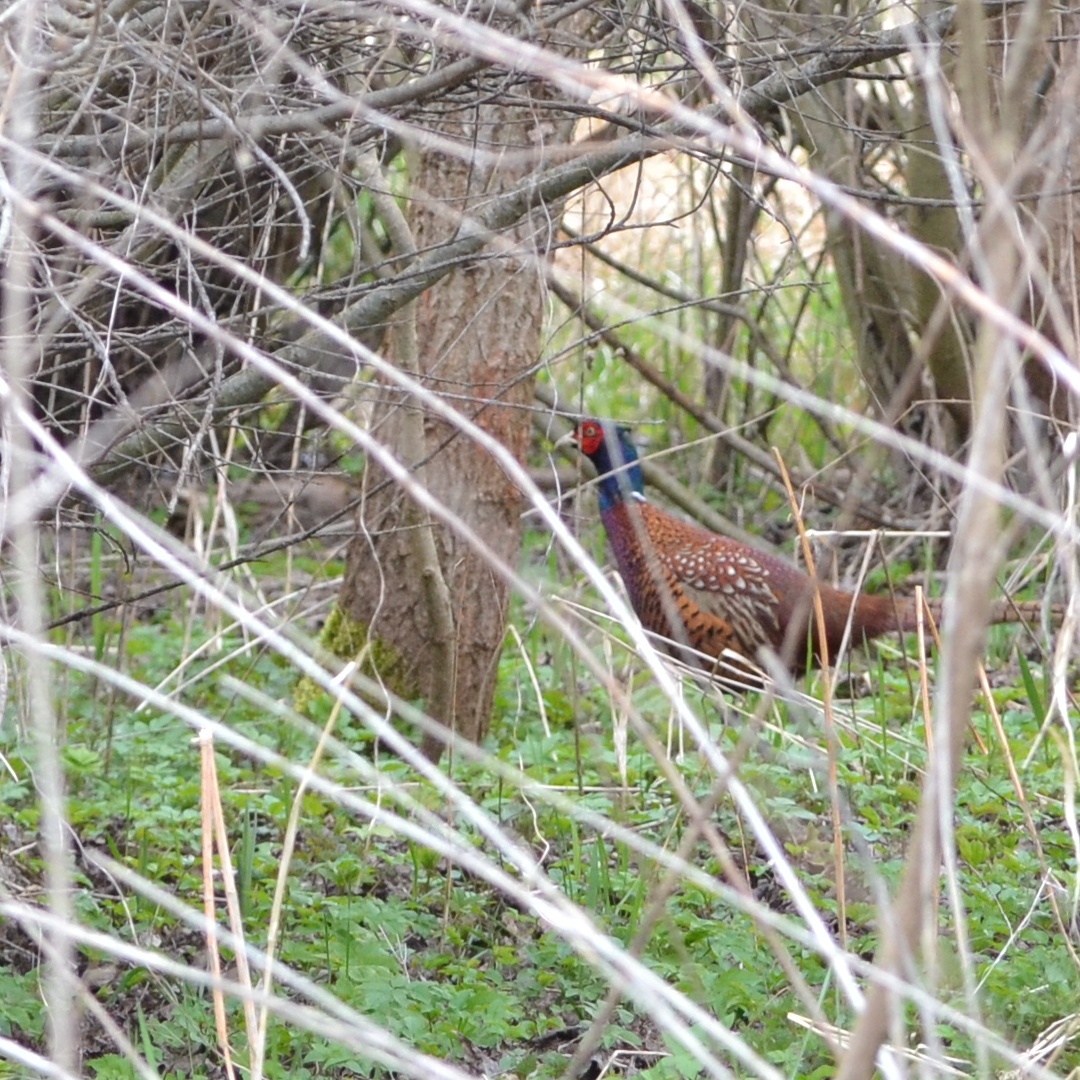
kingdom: Animalia
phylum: Chordata
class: Aves
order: Galliformes
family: Phasianidae
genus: Phasianus
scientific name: Phasianus colchicus
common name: Common pheasant
